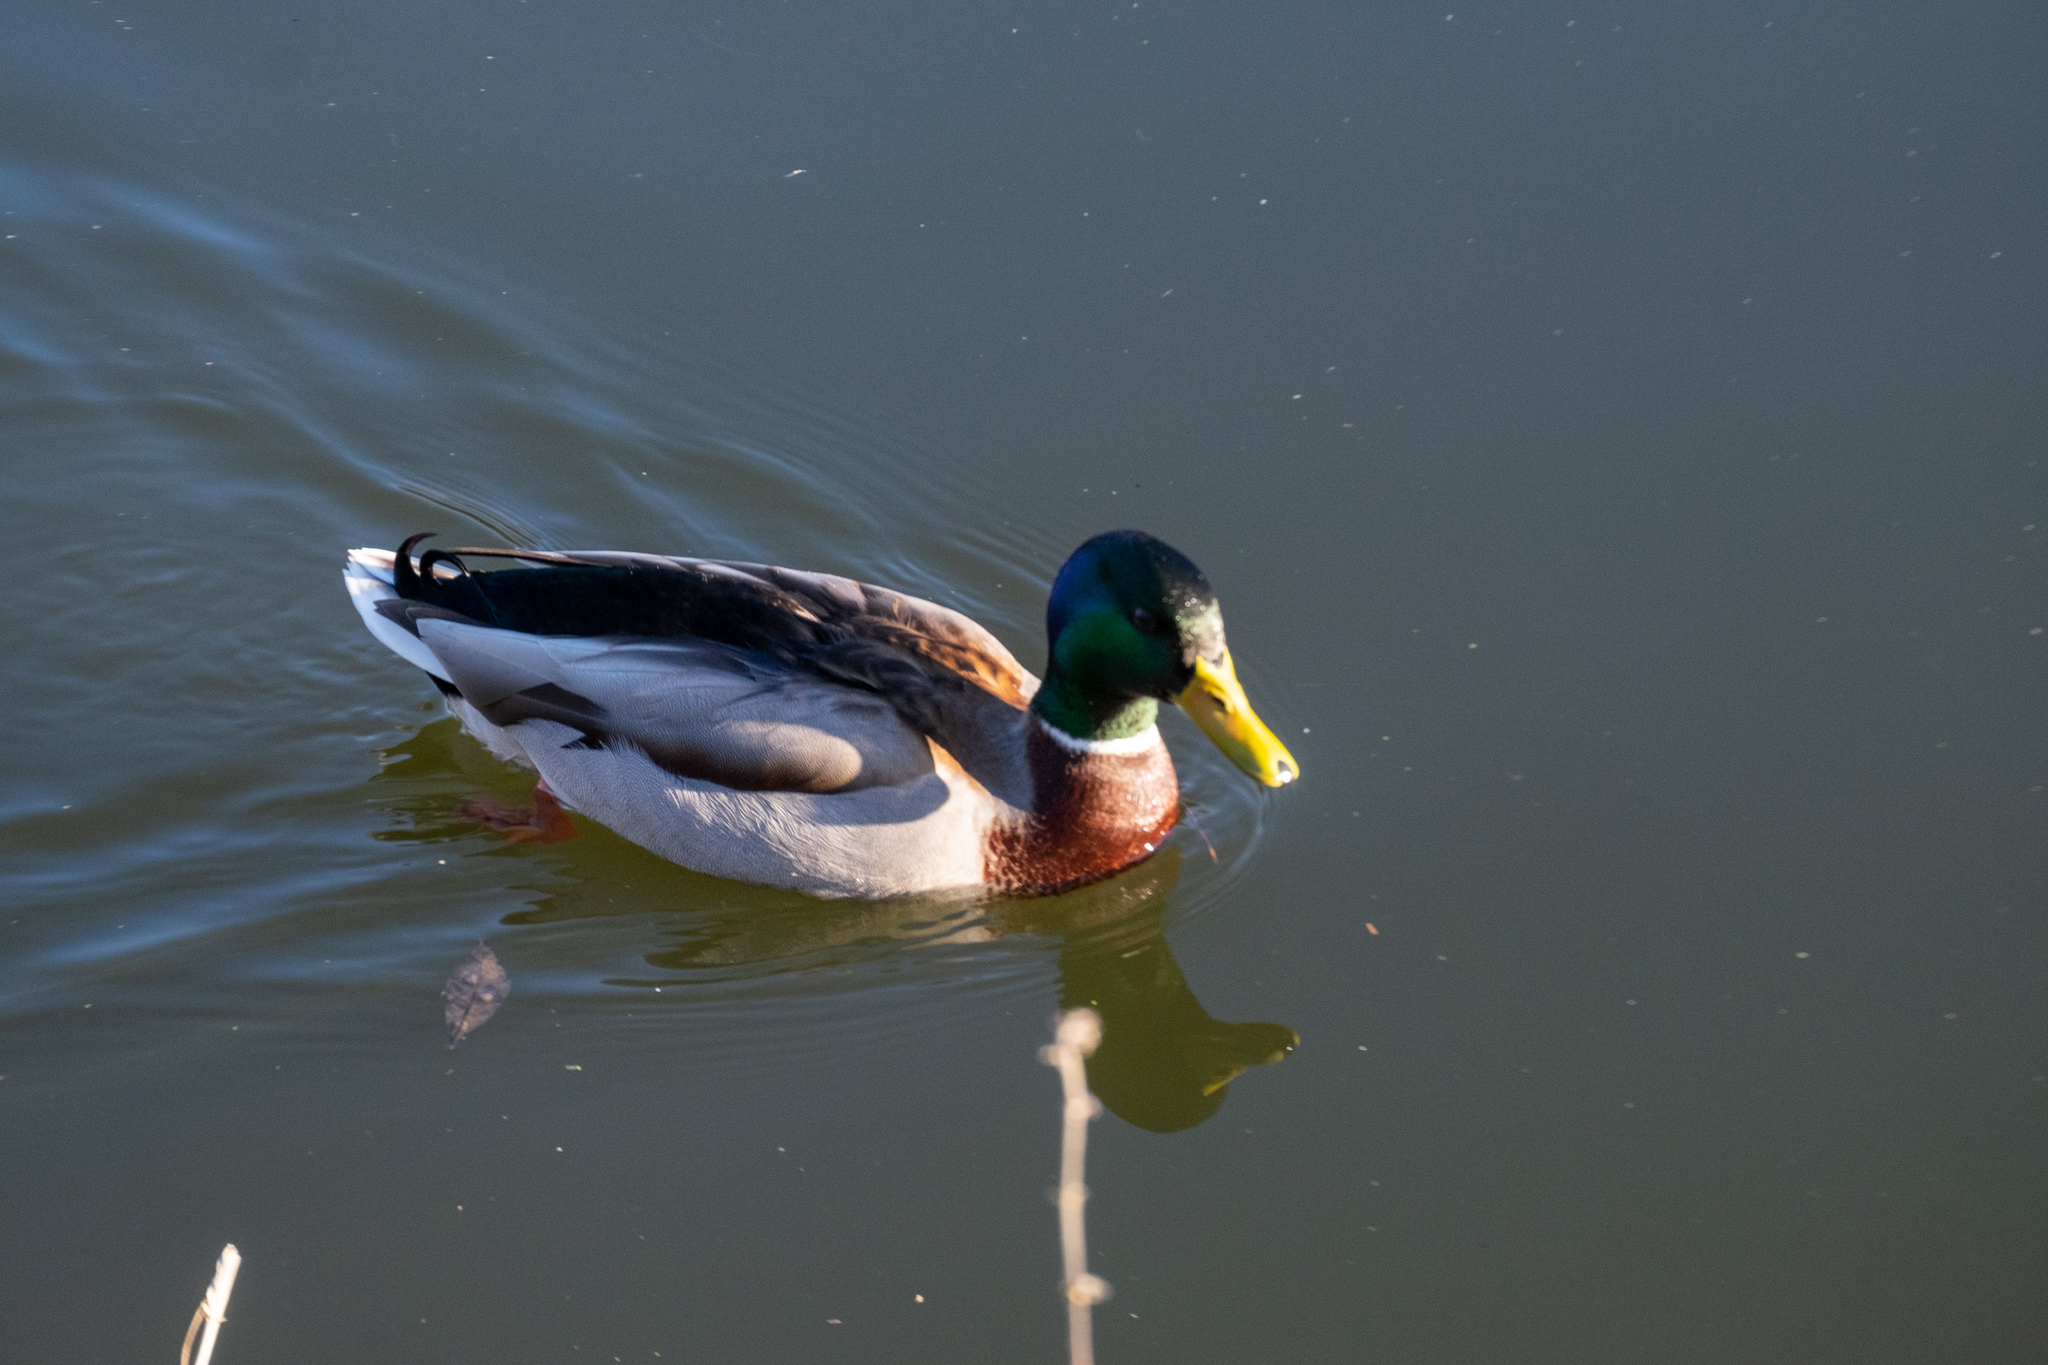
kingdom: Animalia
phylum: Chordata
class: Aves
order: Anseriformes
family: Anatidae
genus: Anas
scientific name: Anas platyrhynchos
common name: Mallard
